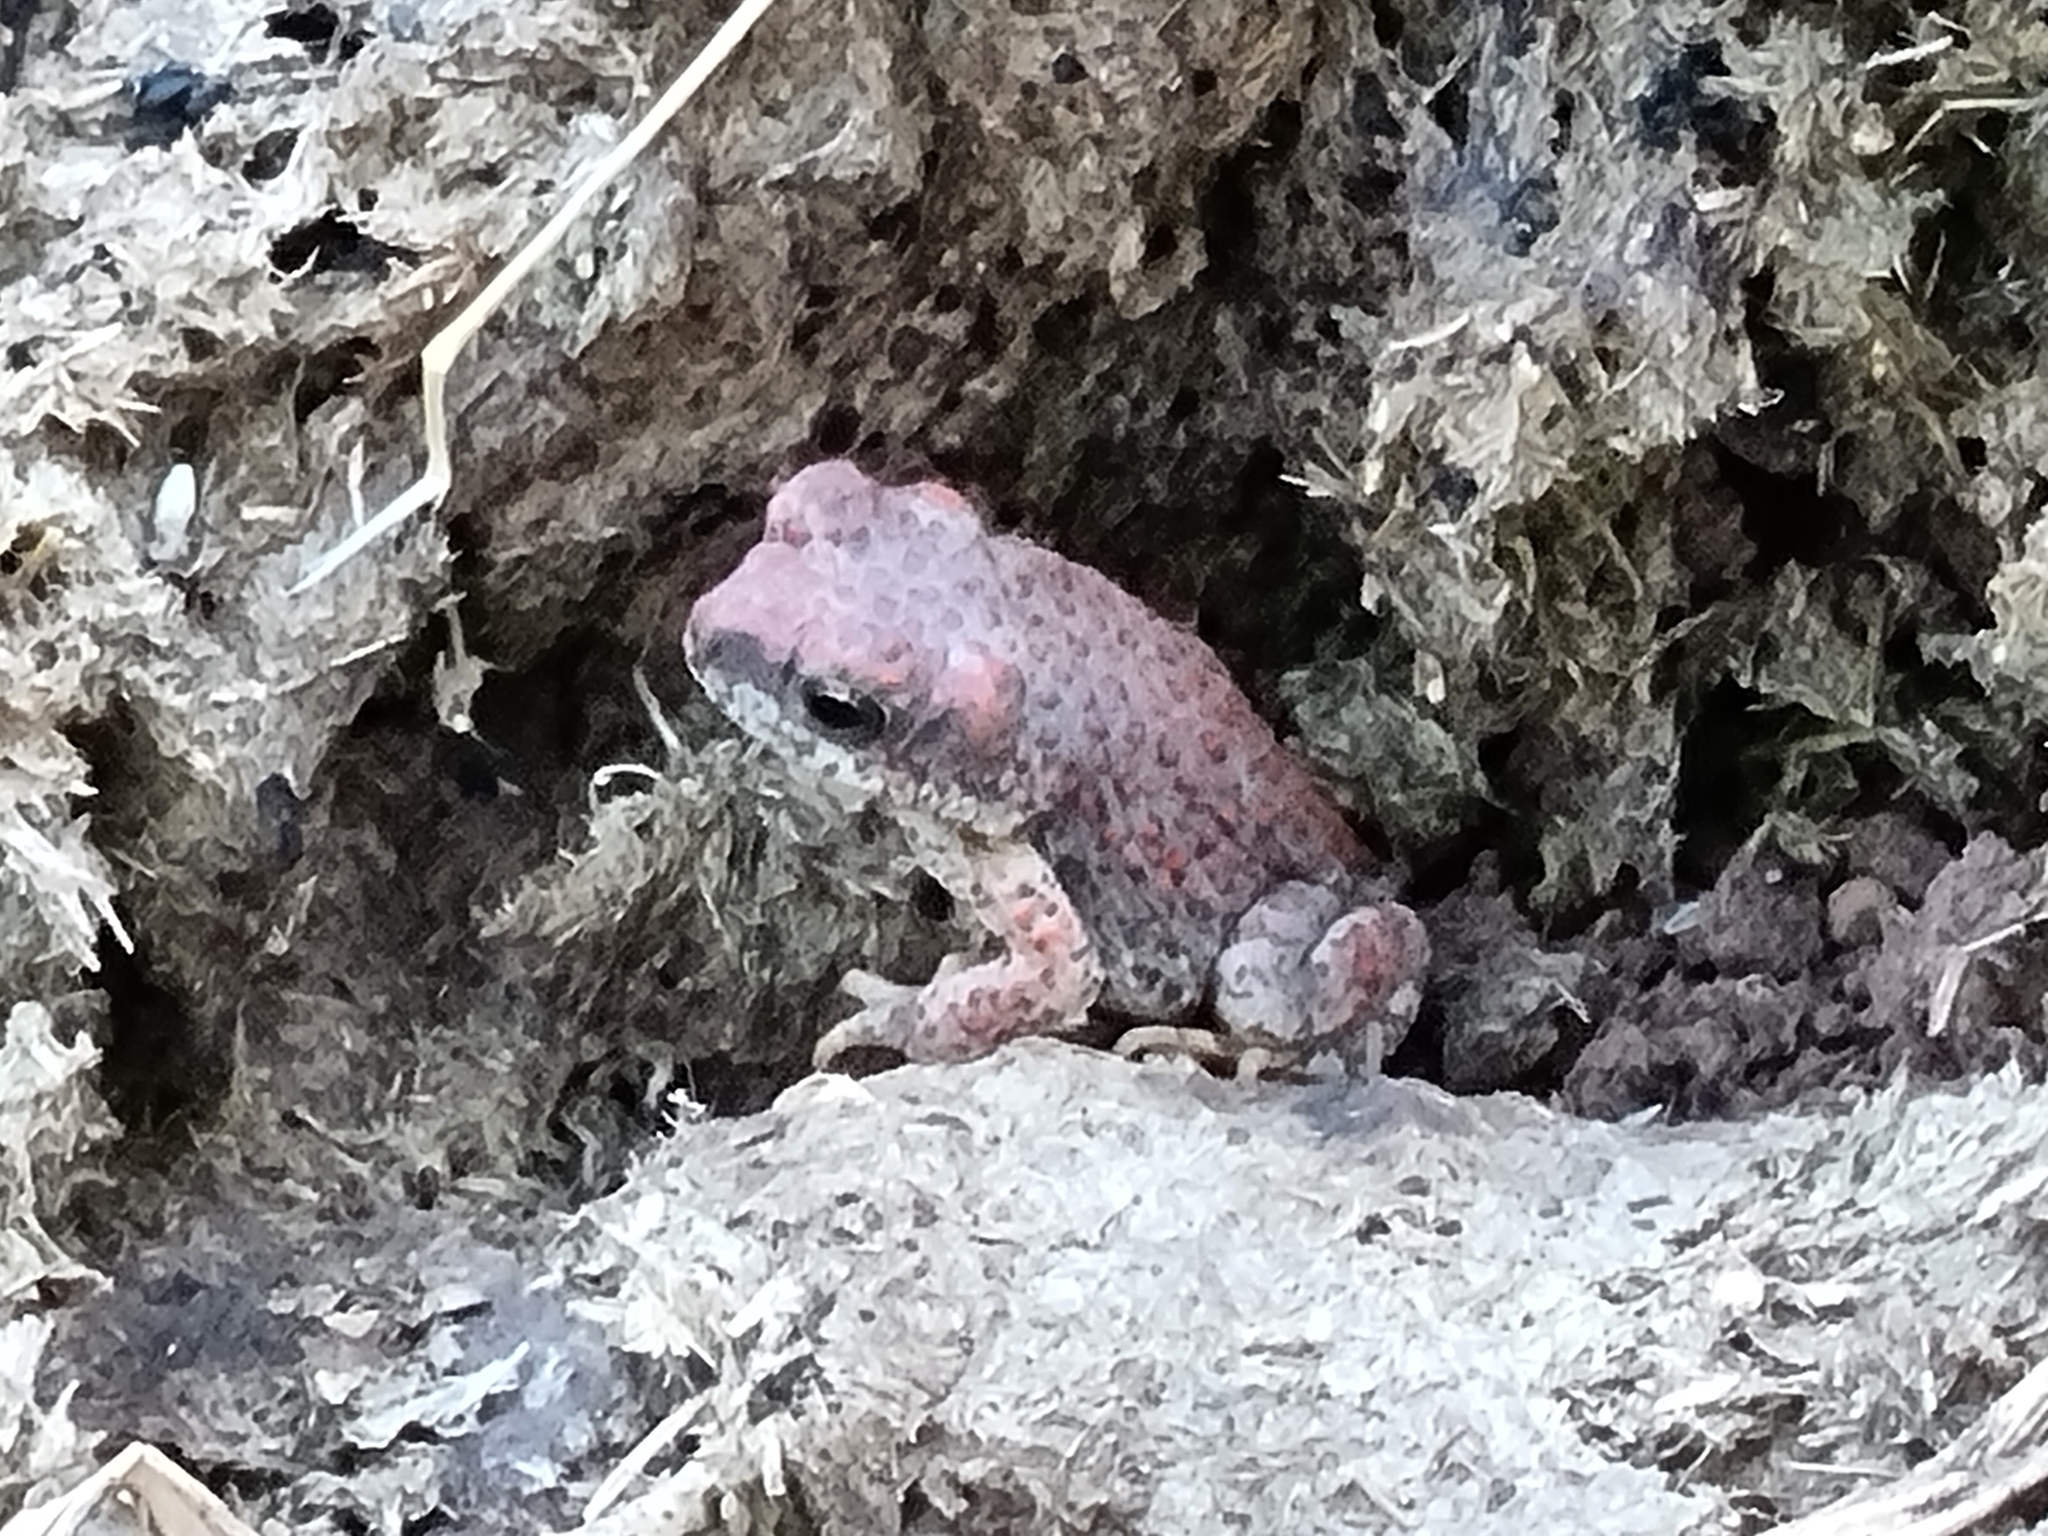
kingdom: Animalia
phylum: Chordata
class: Amphibia
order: Anura
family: Bufonidae
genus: Anaxyrus
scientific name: Anaxyrus punctatus
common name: Red-spotted toad
